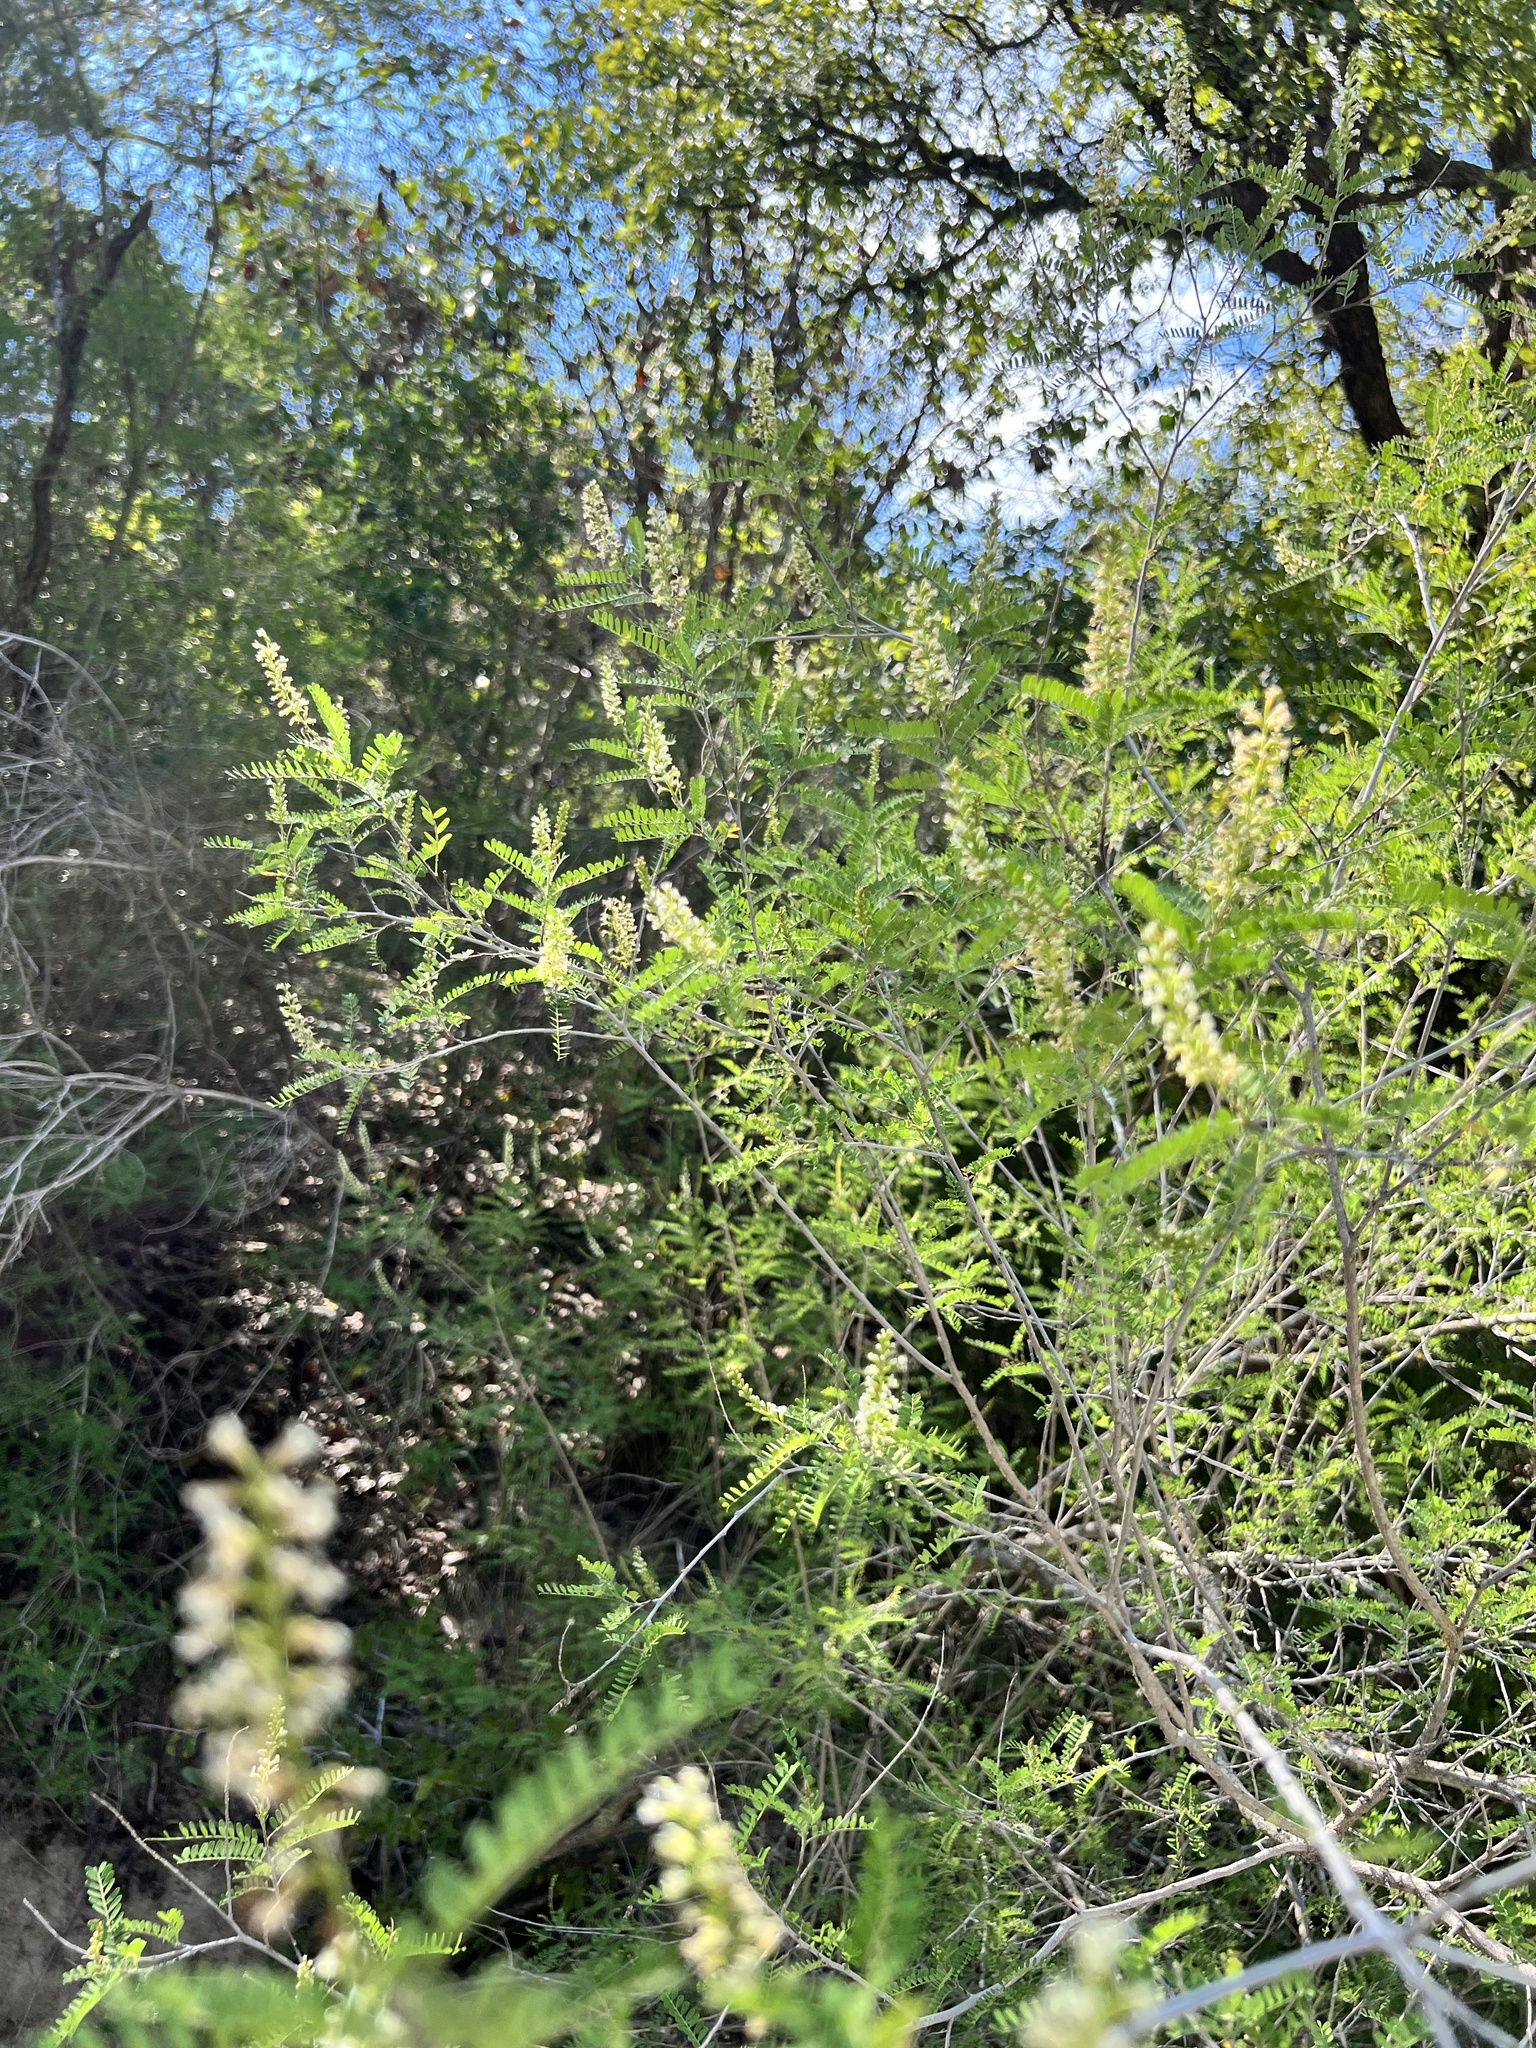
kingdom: Plantae
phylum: Tracheophyta
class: Magnoliopsida
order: Fabales
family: Fabaceae
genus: Eysenhardtia
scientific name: Eysenhardtia texana
